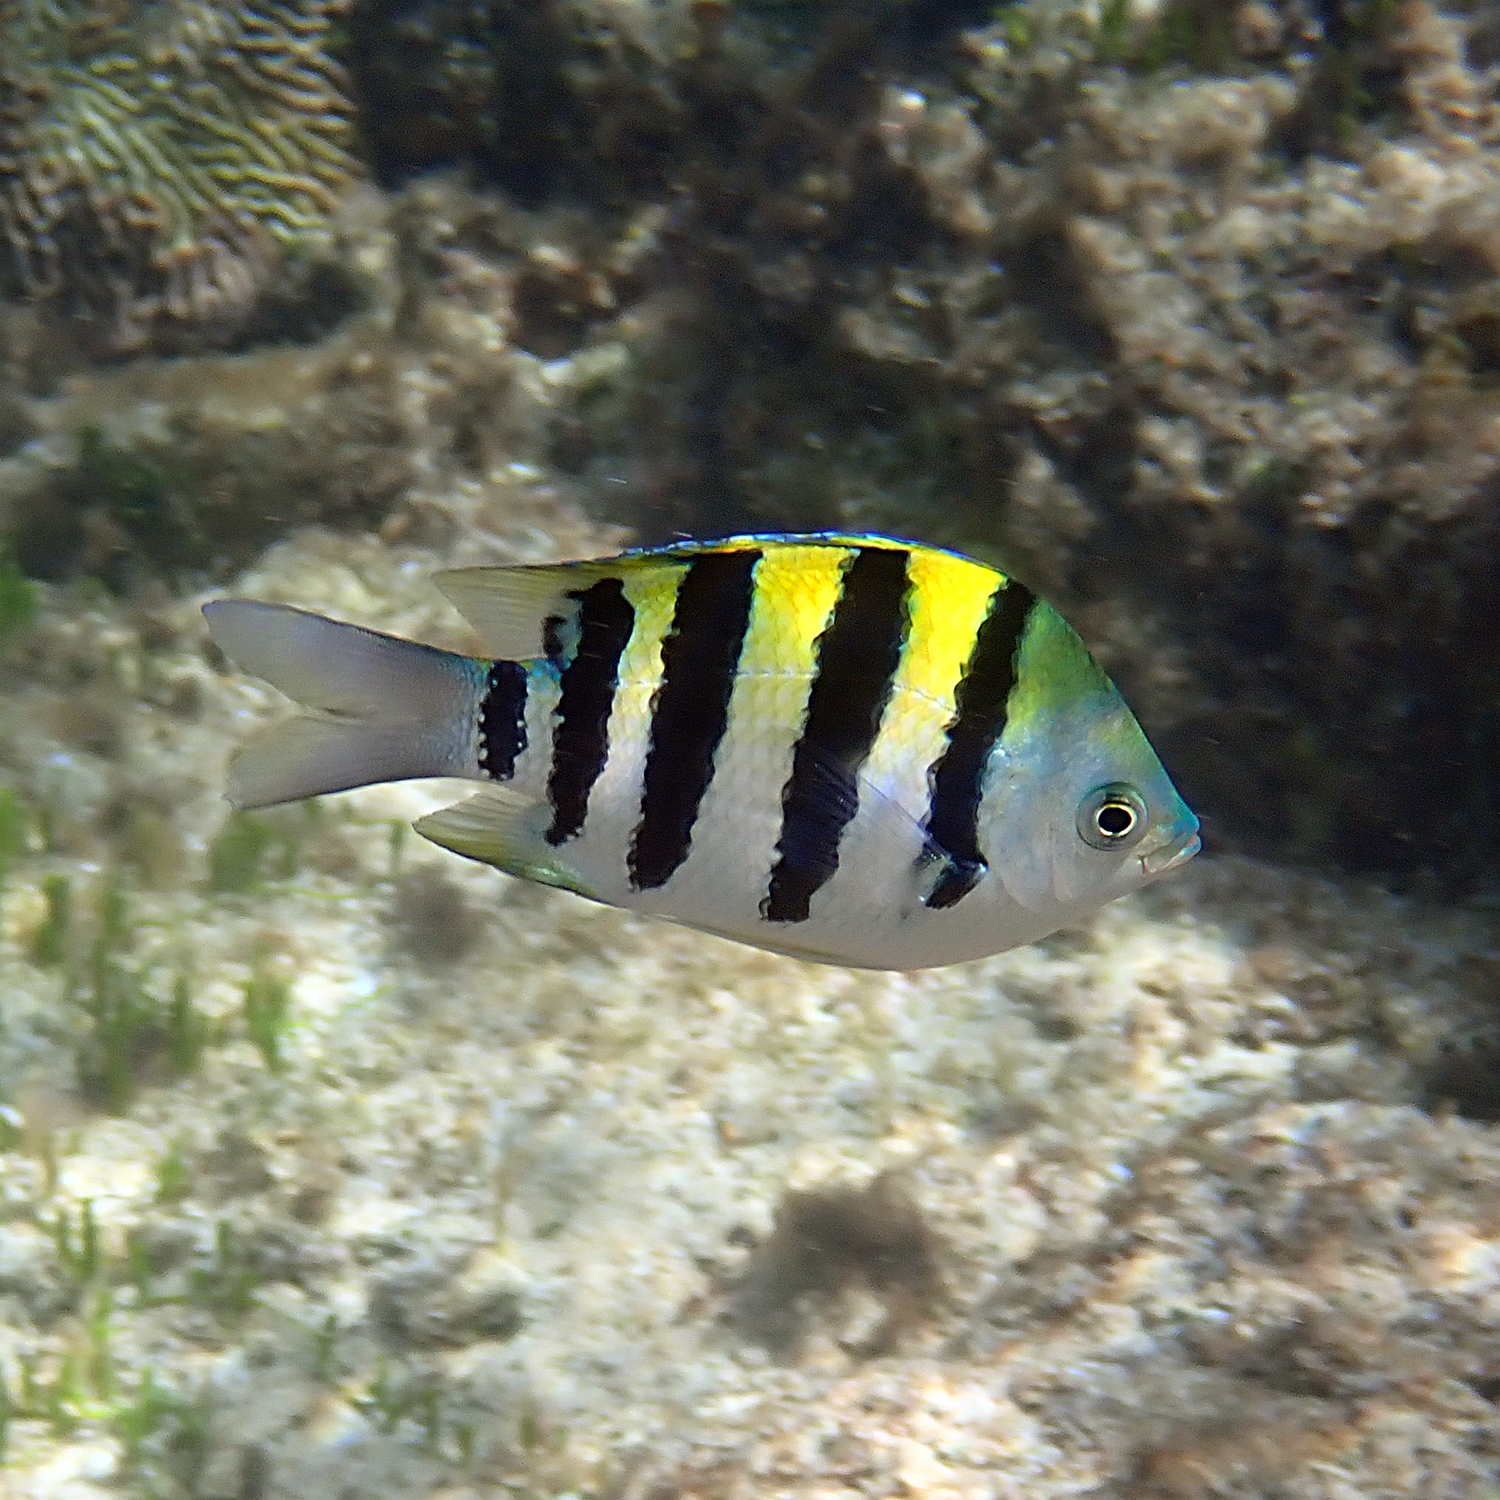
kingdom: Animalia
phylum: Chordata
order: Perciformes
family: Pomacentridae
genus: Abudefduf
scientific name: Abudefduf vaigiensis
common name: Indo-pacific sergeant
